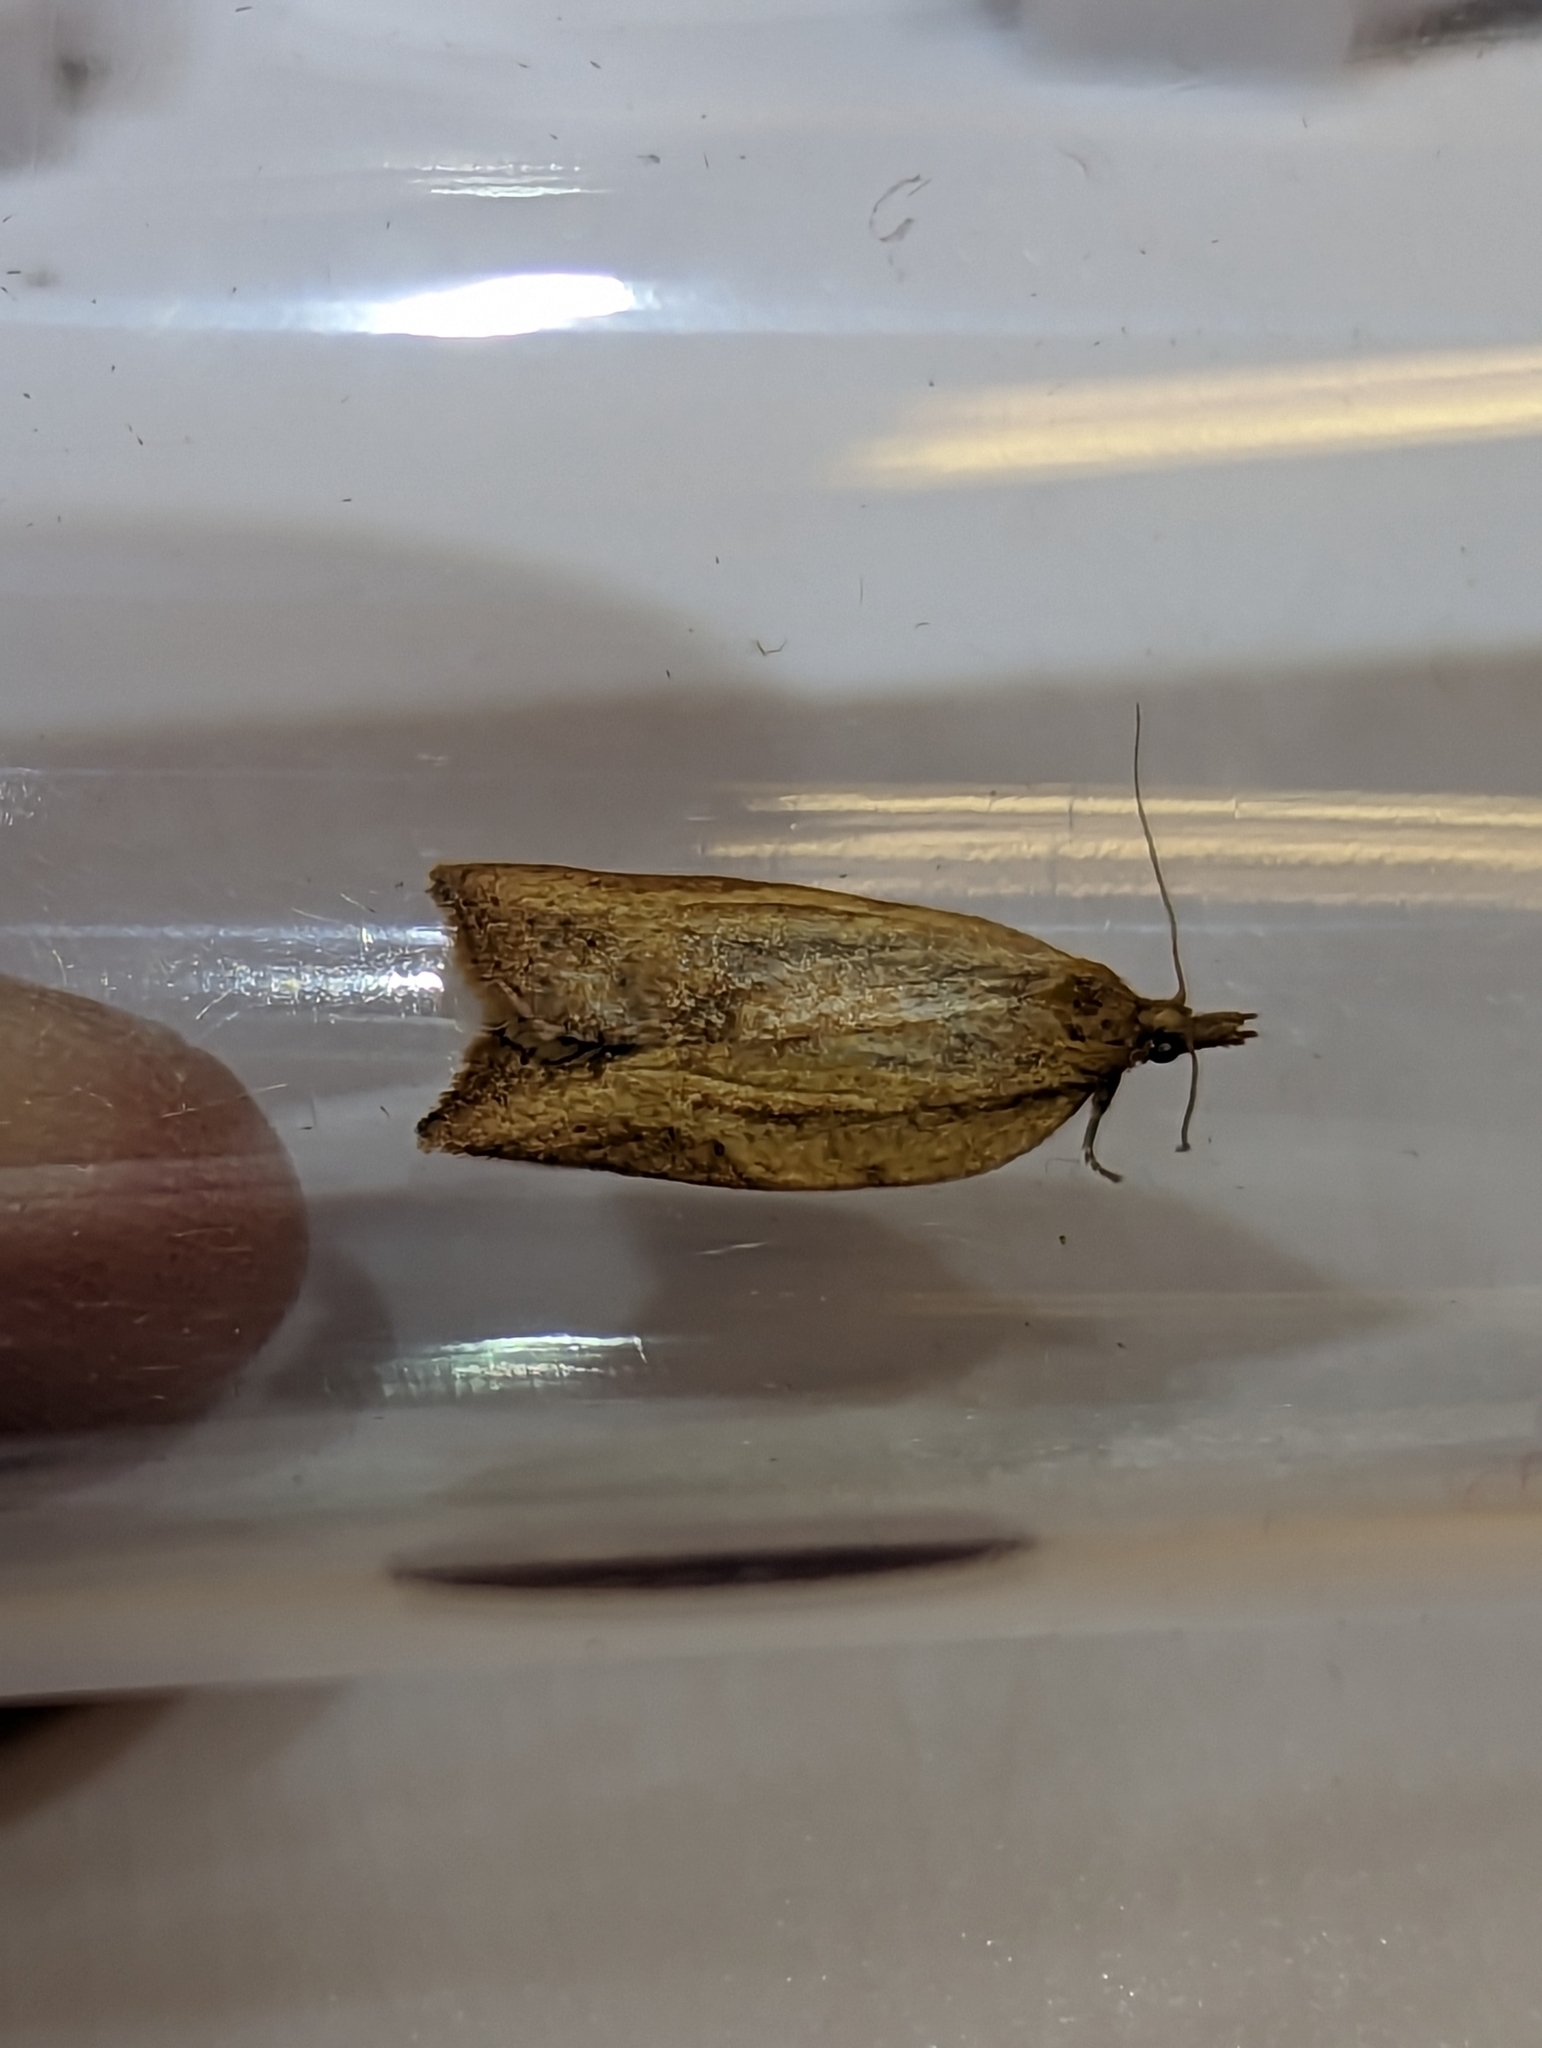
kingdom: Animalia
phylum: Arthropoda
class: Insecta
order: Lepidoptera
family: Tortricidae
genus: Epiphyas
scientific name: Epiphyas postvittana
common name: Light brown apple moth
